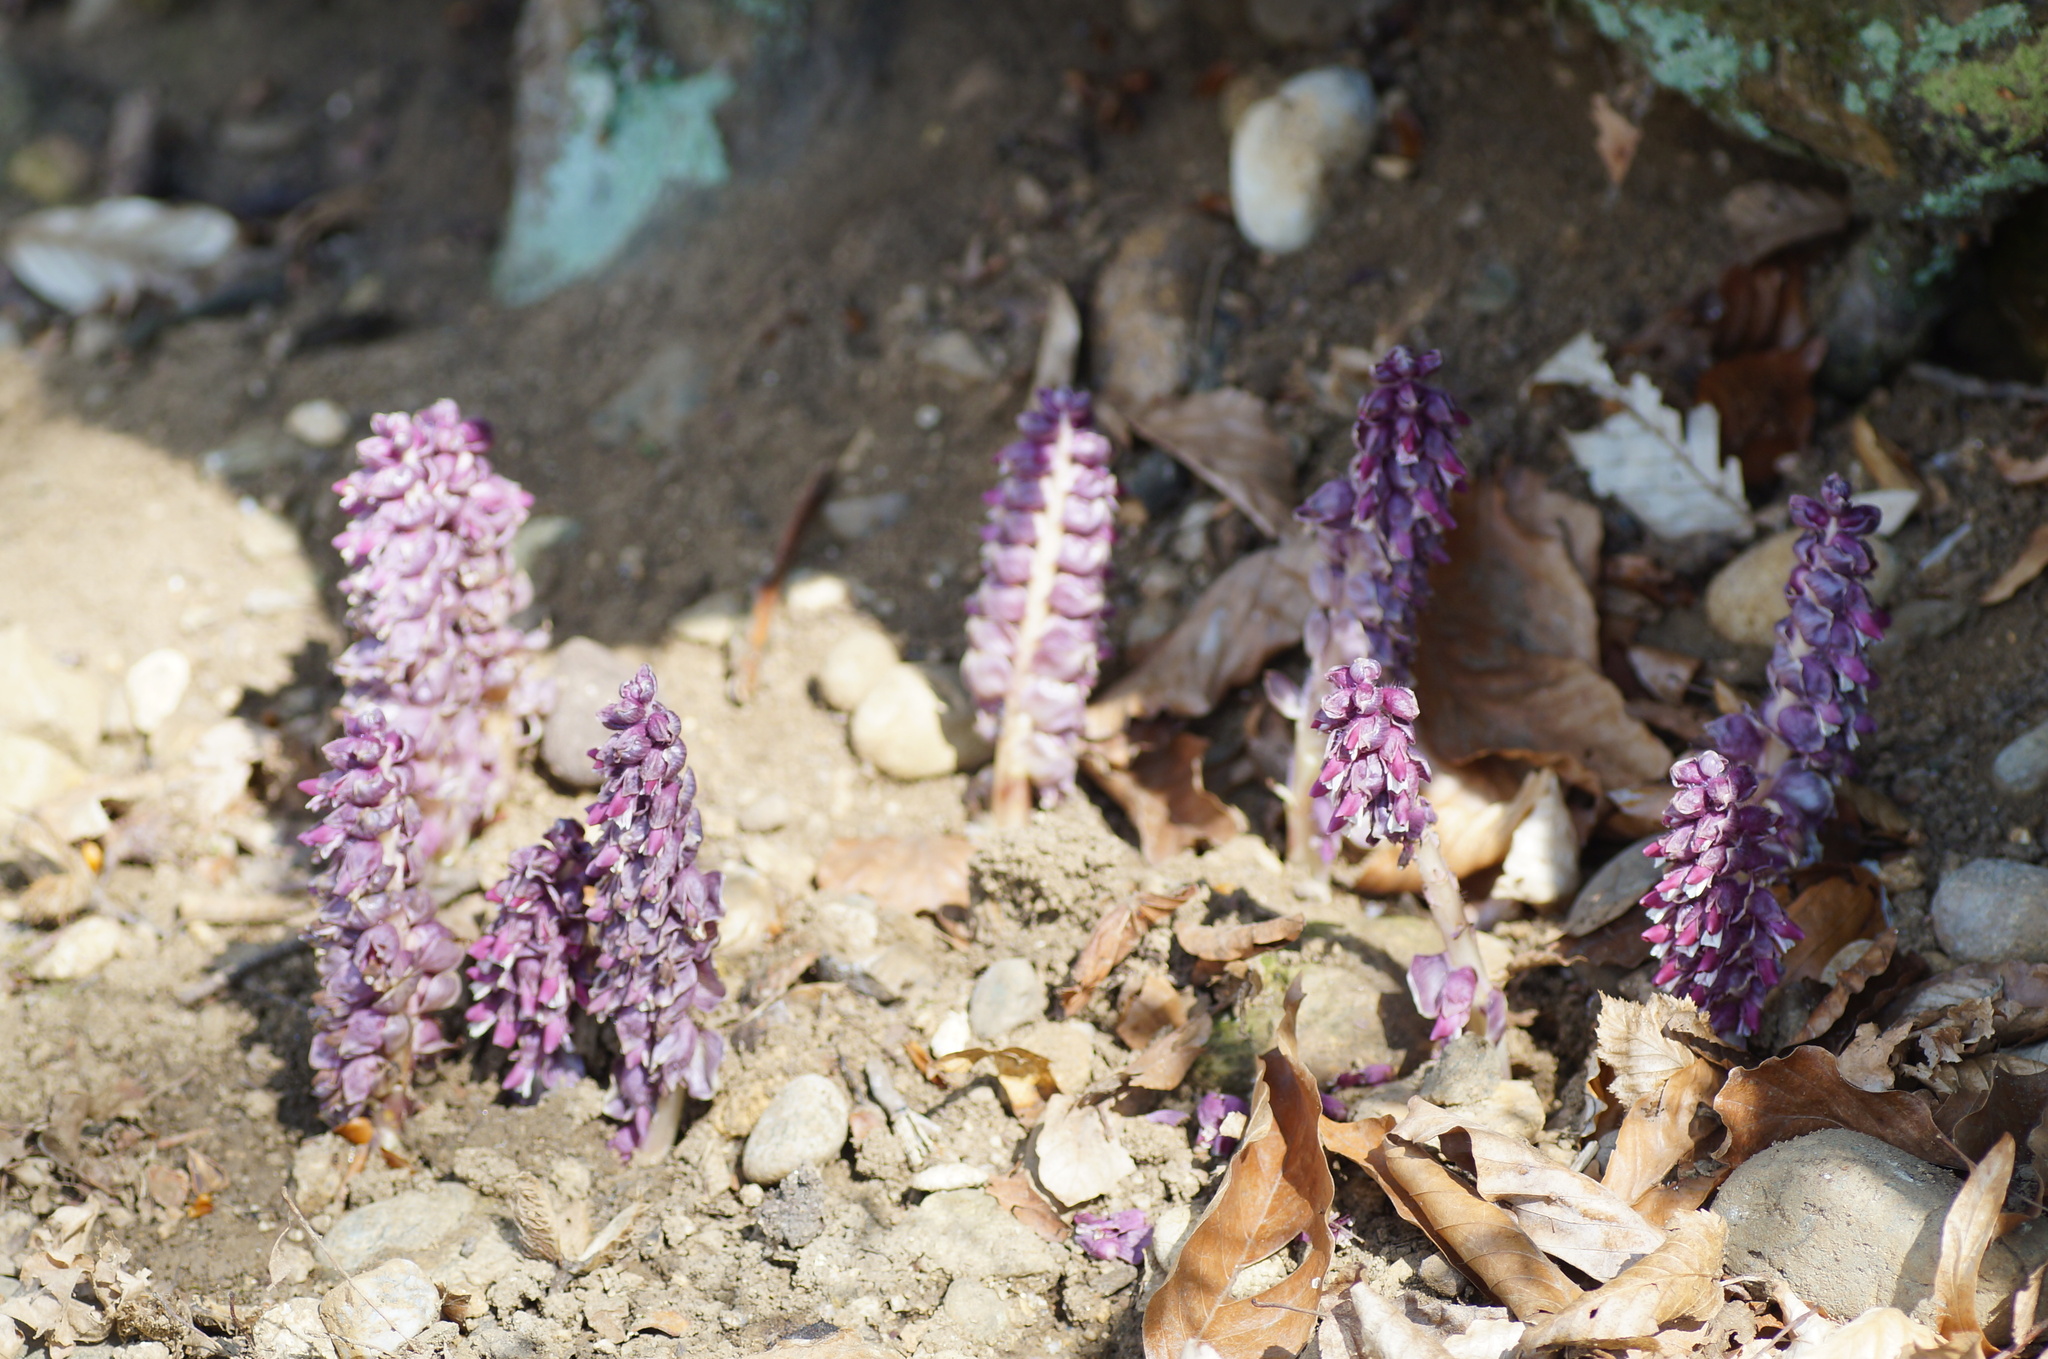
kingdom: Plantae
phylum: Tracheophyta
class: Magnoliopsida
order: Lamiales
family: Orobanchaceae
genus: Lathraea
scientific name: Lathraea squamaria
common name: Toothwort
